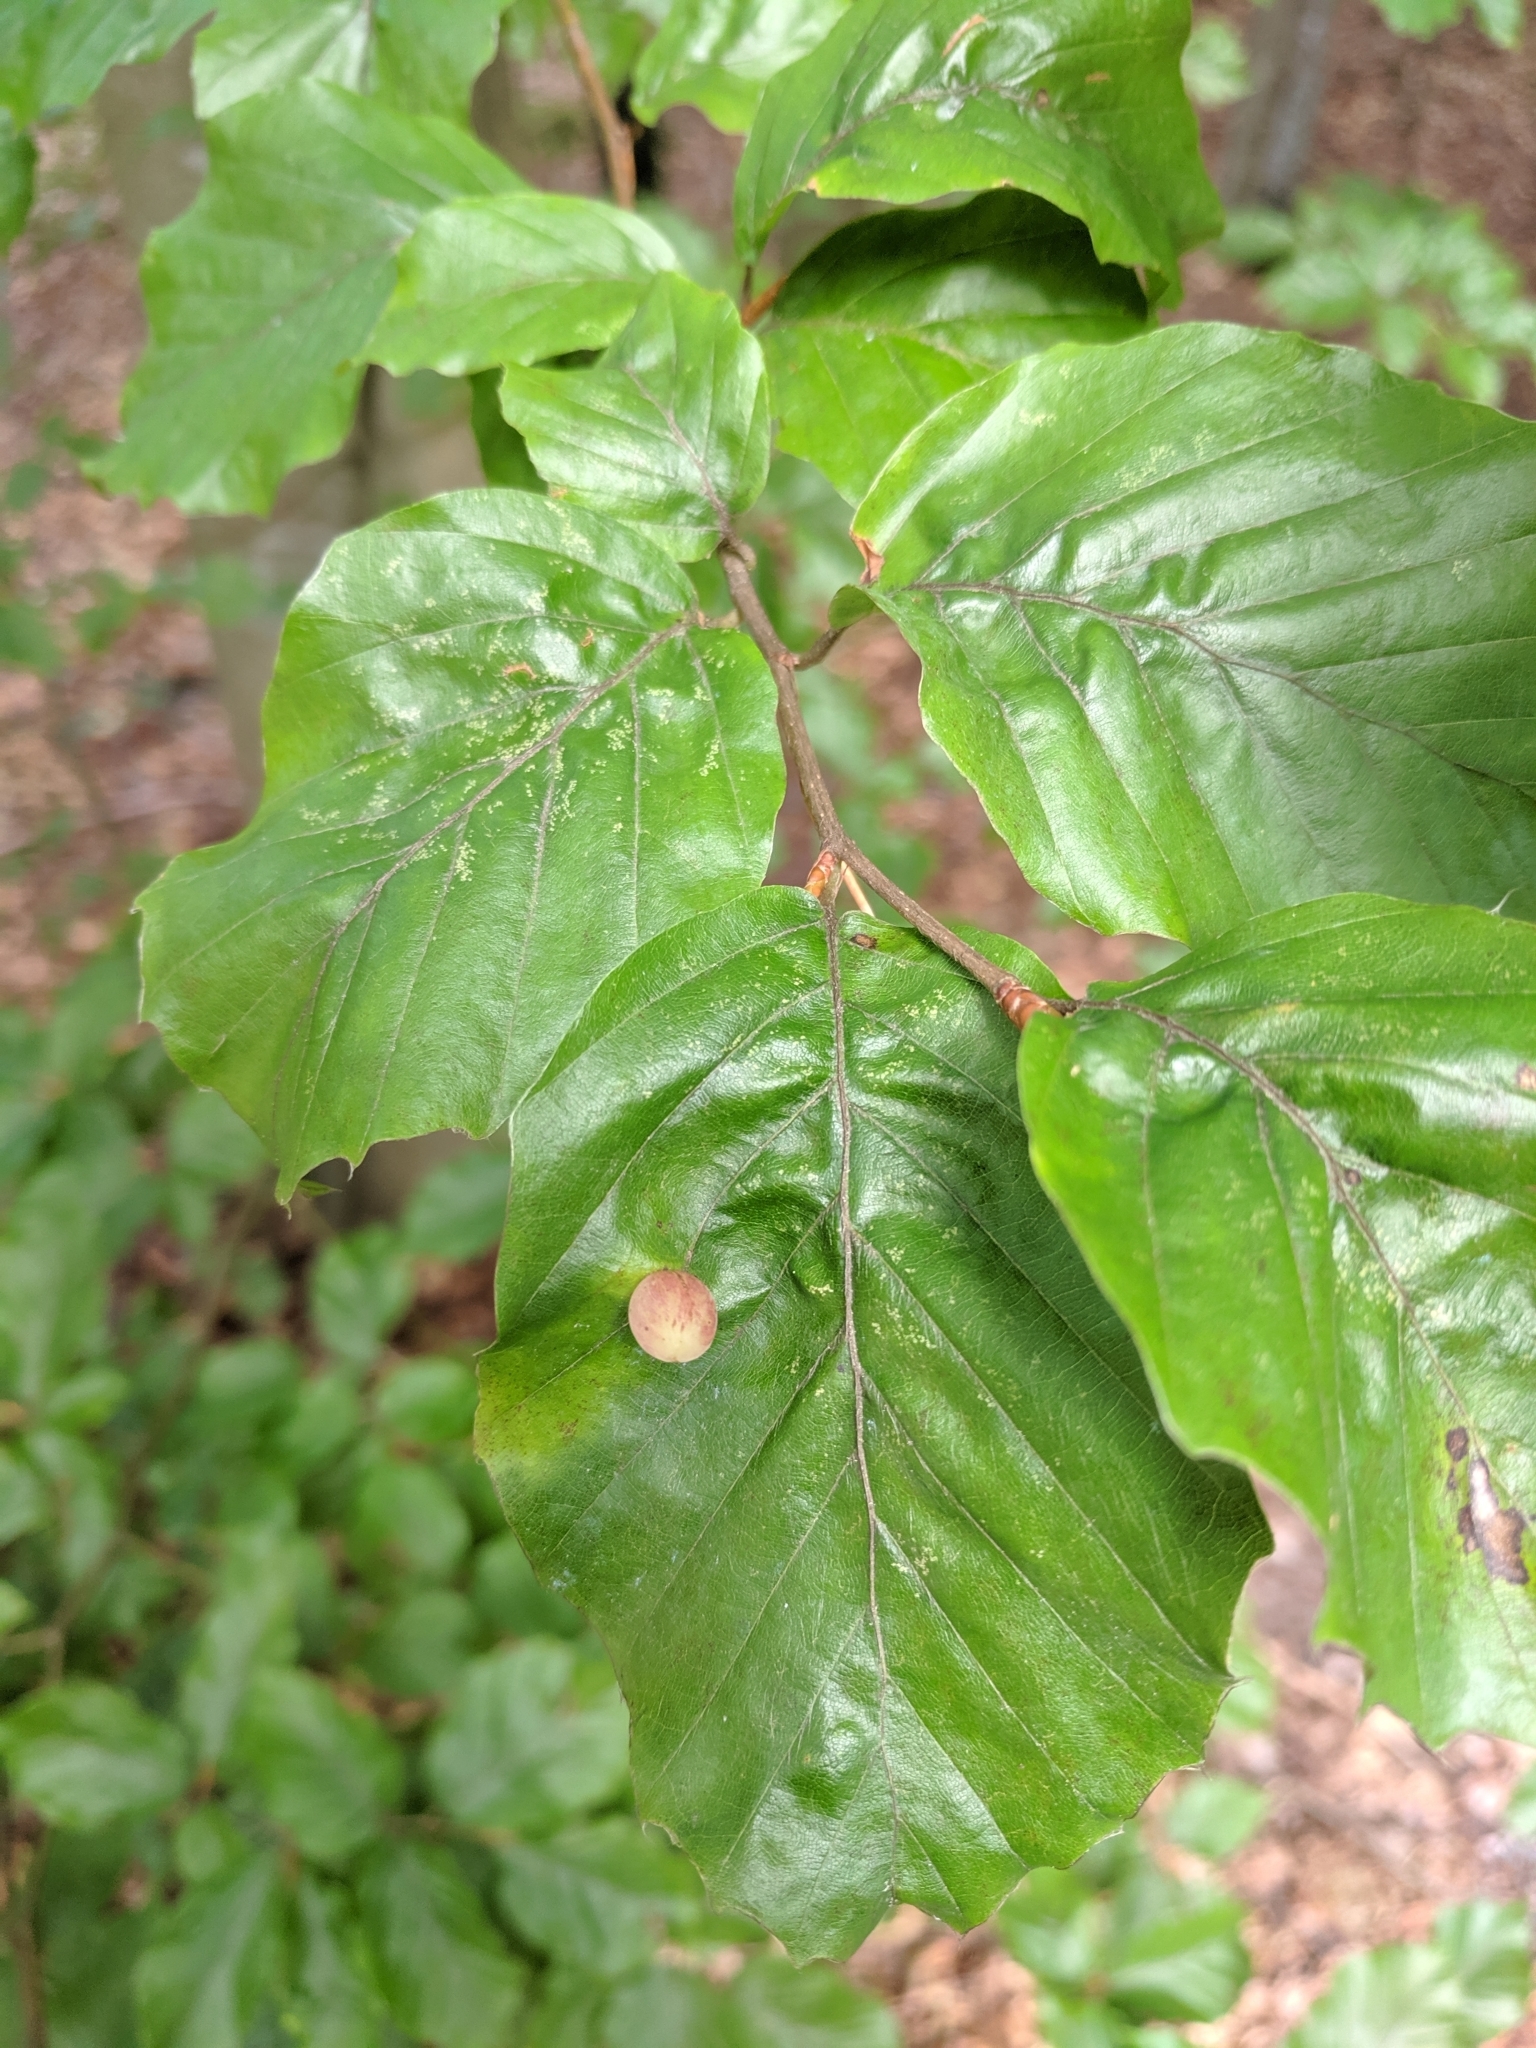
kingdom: Animalia
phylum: Arthropoda
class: Insecta
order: Diptera
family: Cecidomyiidae
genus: Mikiola
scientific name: Mikiola fagi
